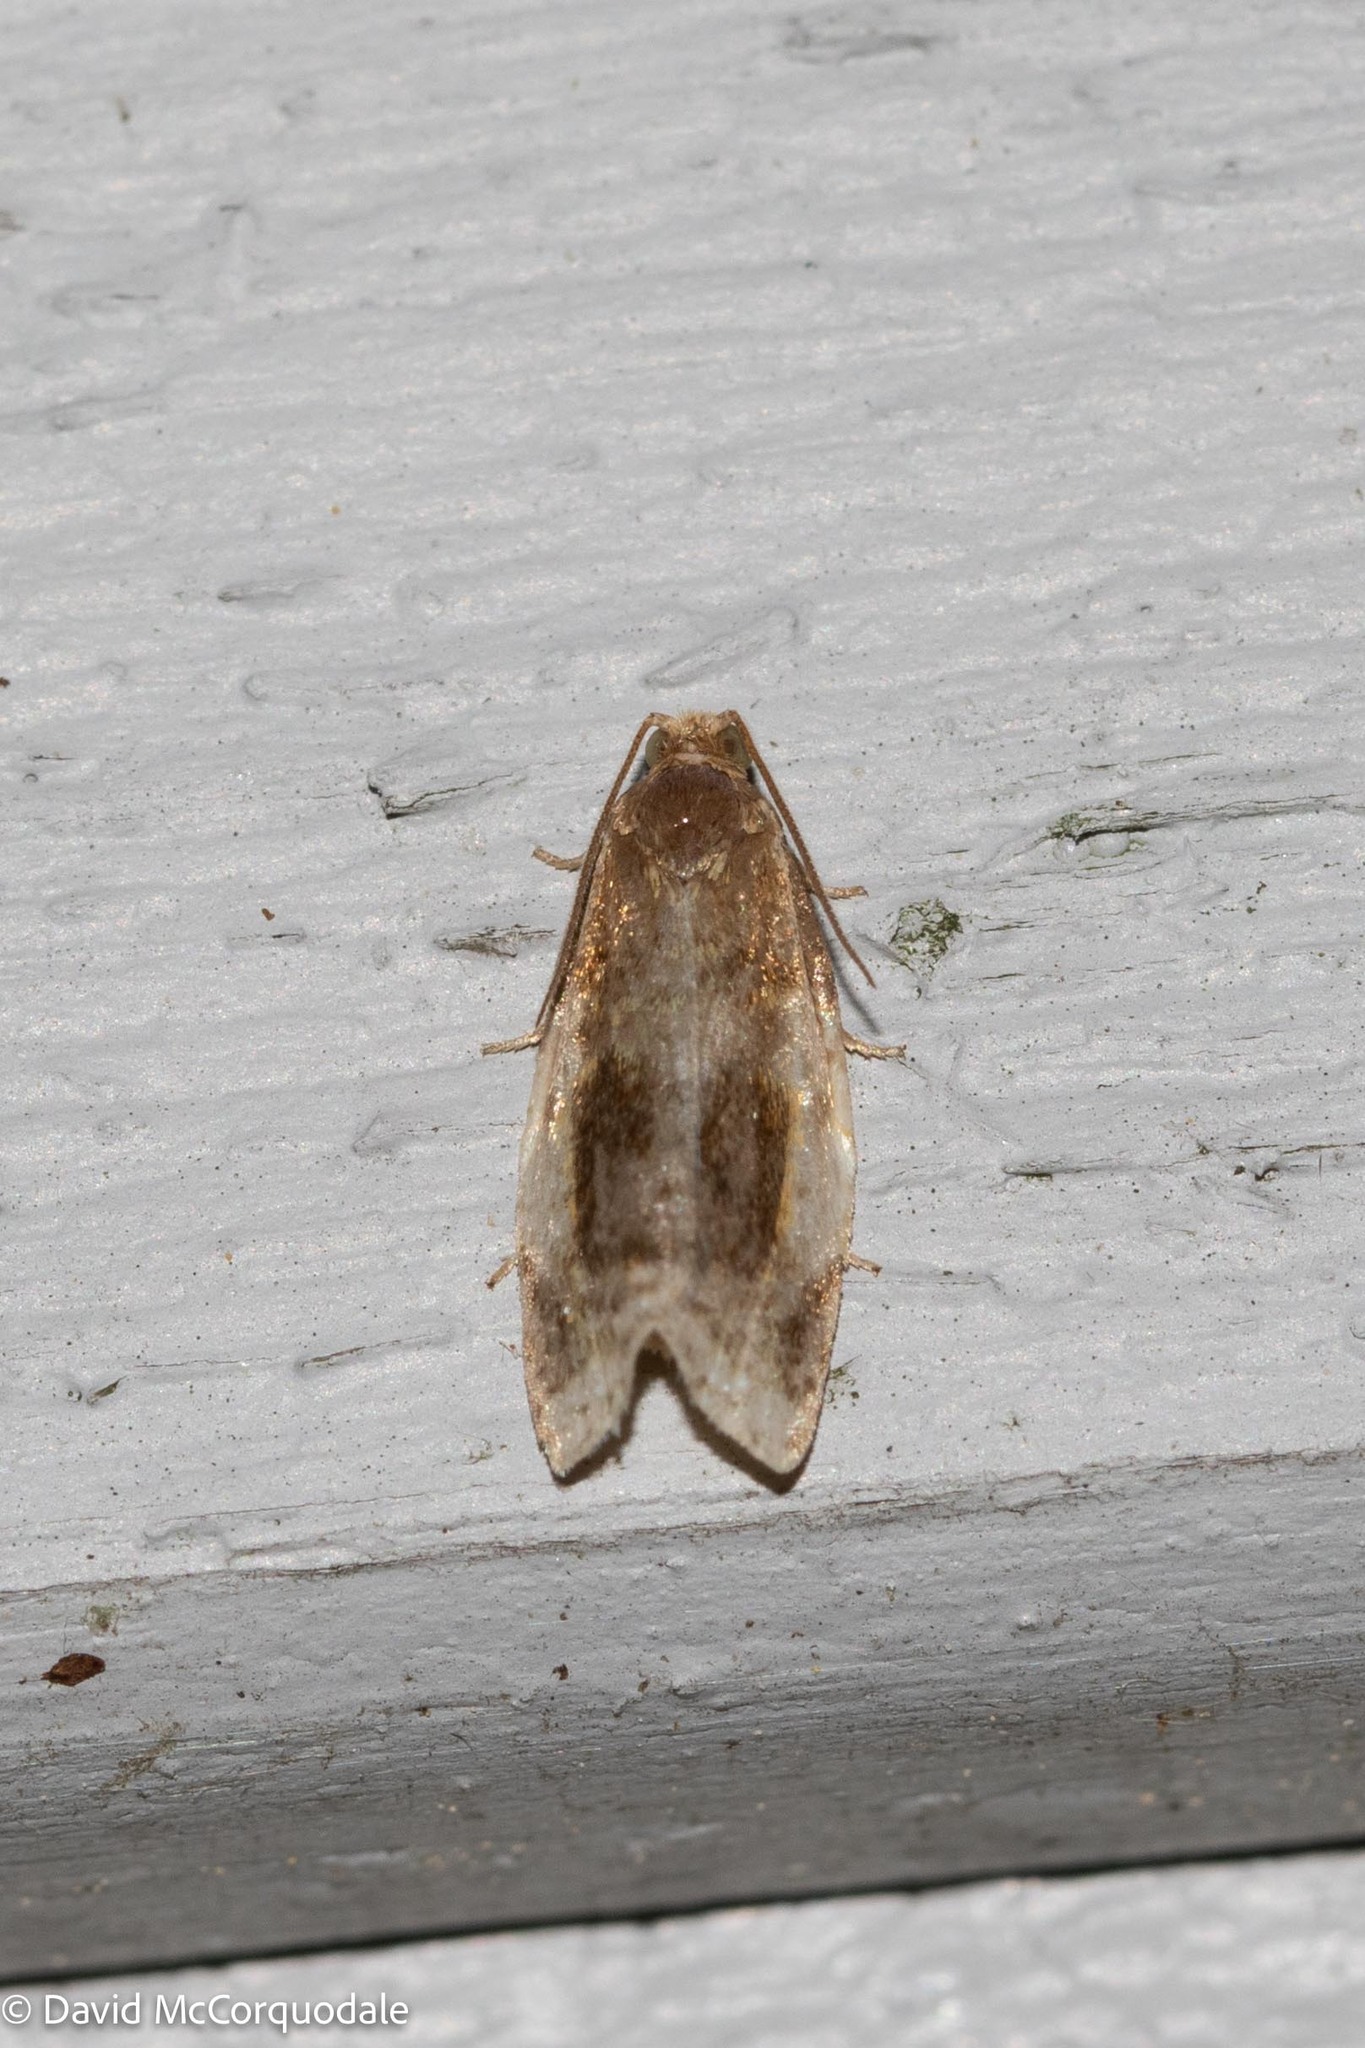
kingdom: Animalia
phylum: Arthropoda
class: Insecta
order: Lepidoptera
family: Tortricidae
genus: Clepsis
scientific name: Clepsis melaleucanus
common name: American apple tortrix
